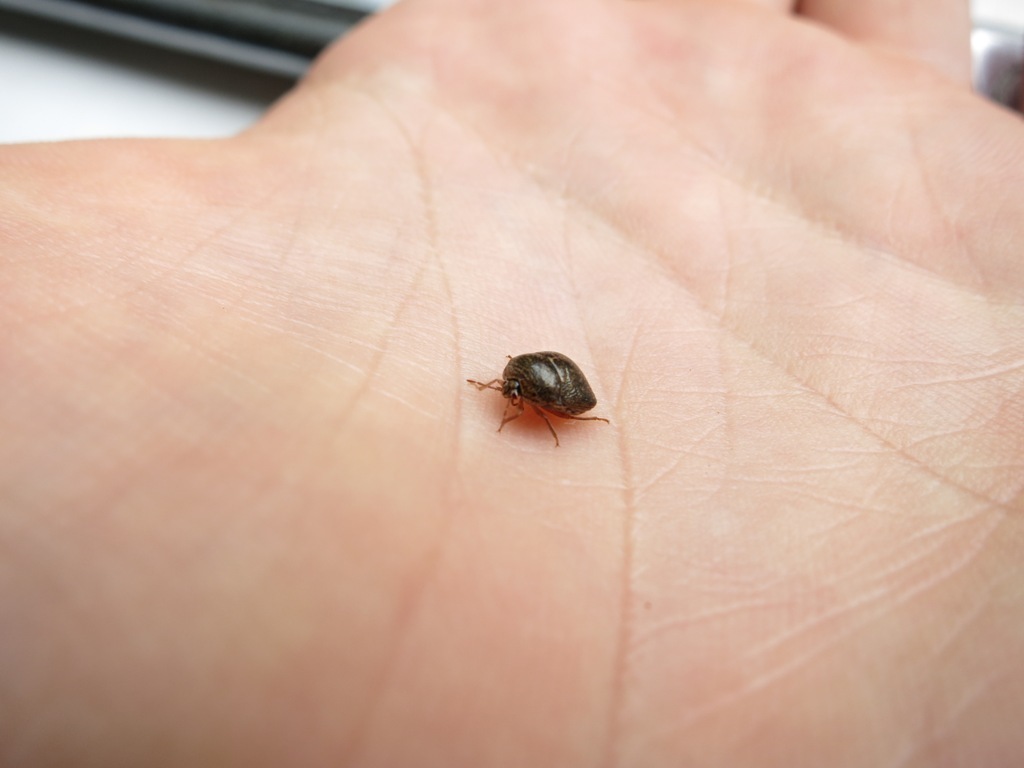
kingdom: Animalia
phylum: Arthropoda
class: Insecta
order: Hemiptera
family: Plataspidae
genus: Megacopta
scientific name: Megacopta cribraria
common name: Bean plataspid
